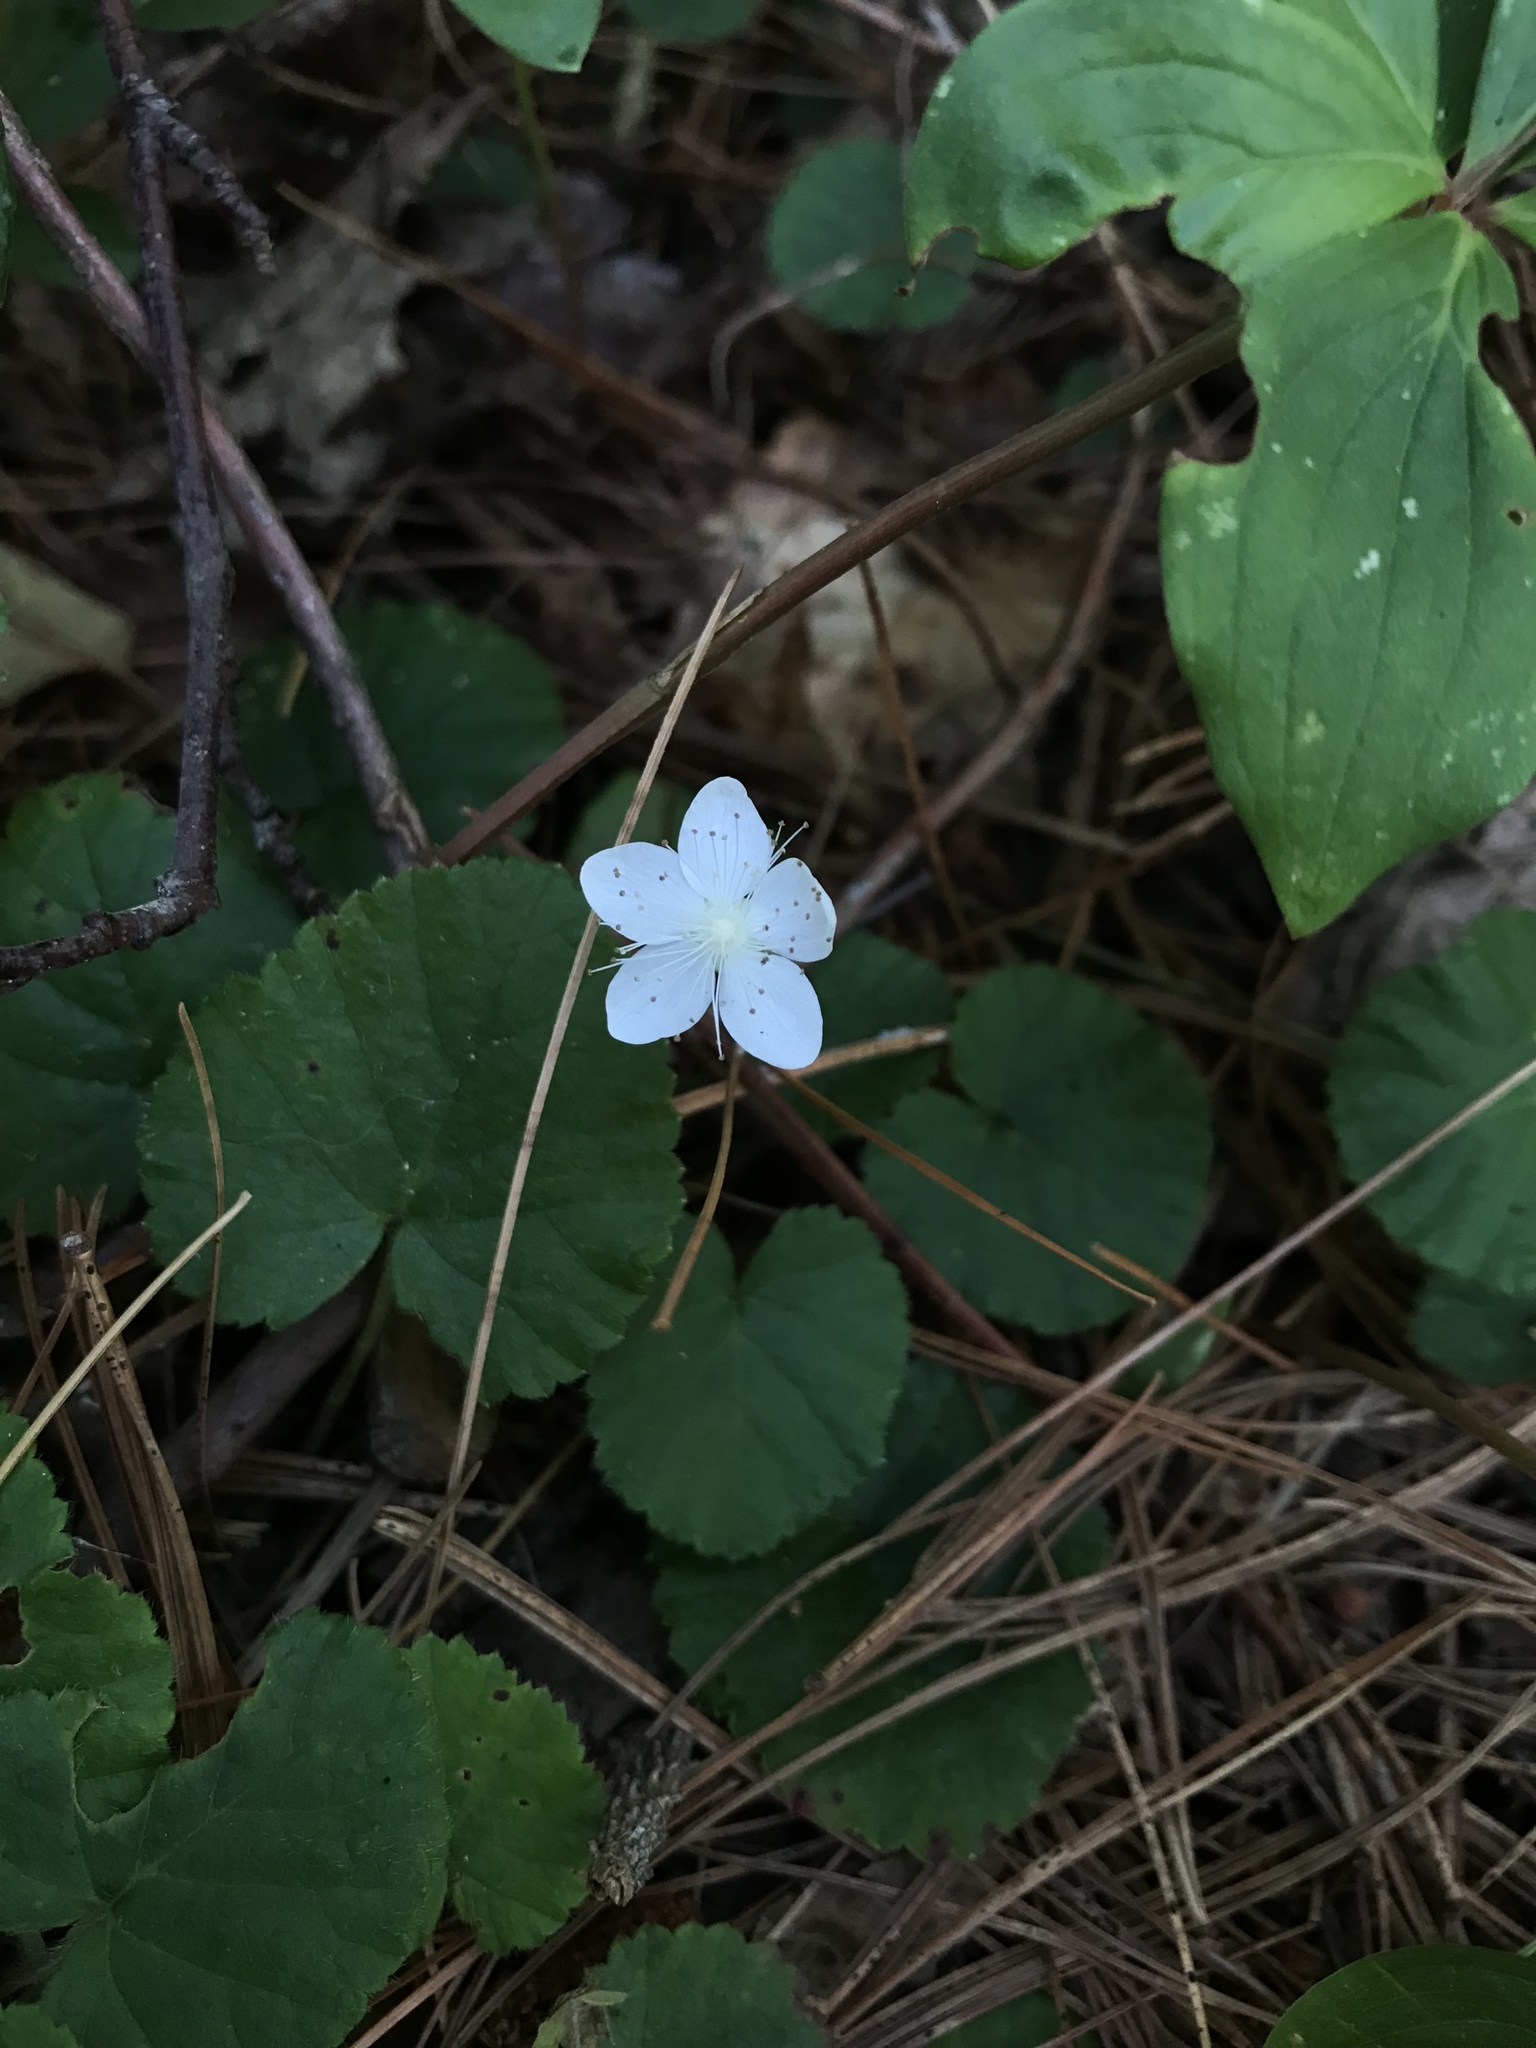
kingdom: Plantae
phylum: Tracheophyta
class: Magnoliopsida
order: Rosales
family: Rosaceae
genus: Dalibarda
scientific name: Dalibarda repens
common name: Dewdrop
